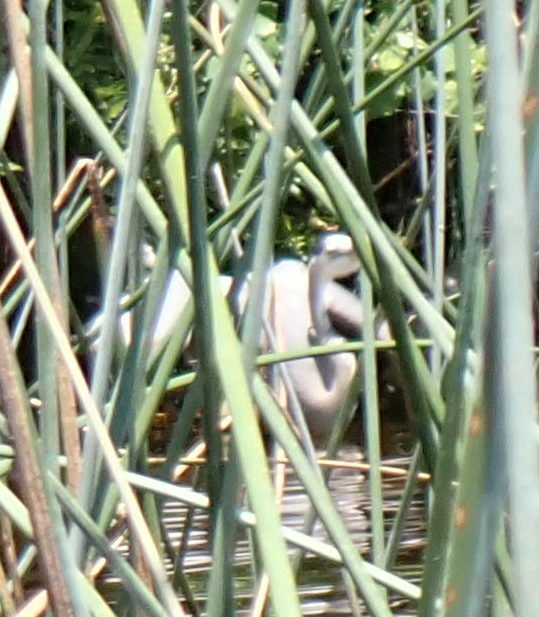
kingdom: Animalia
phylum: Chordata
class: Aves
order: Pelecaniformes
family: Ardeidae
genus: Ardea
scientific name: Ardea herodias
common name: Great blue heron
